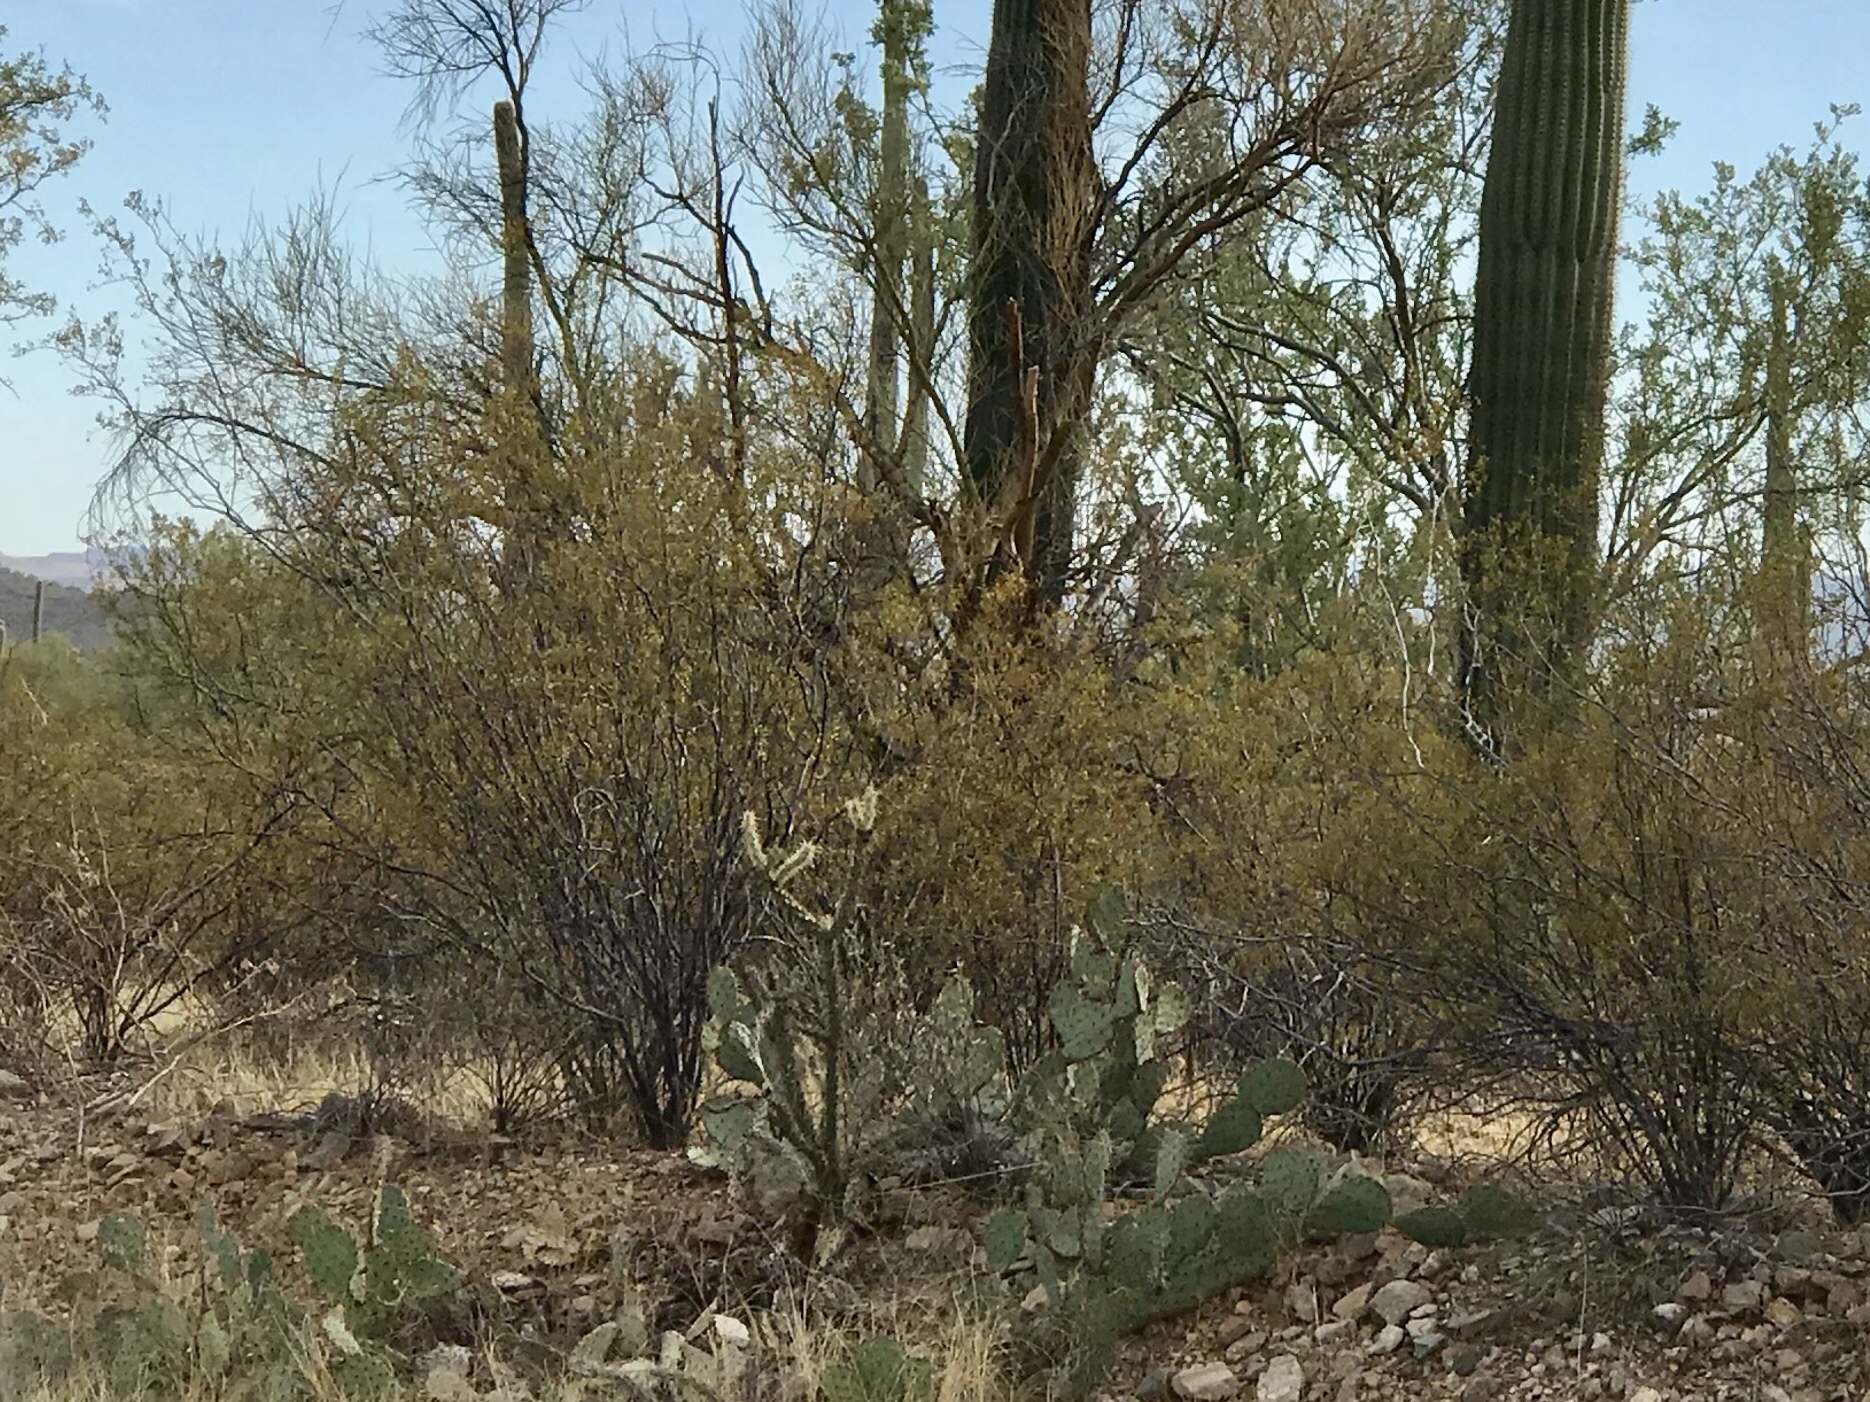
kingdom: Plantae
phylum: Tracheophyta
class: Magnoliopsida
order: Zygophyllales
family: Zygophyllaceae
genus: Larrea
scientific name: Larrea tridentata
